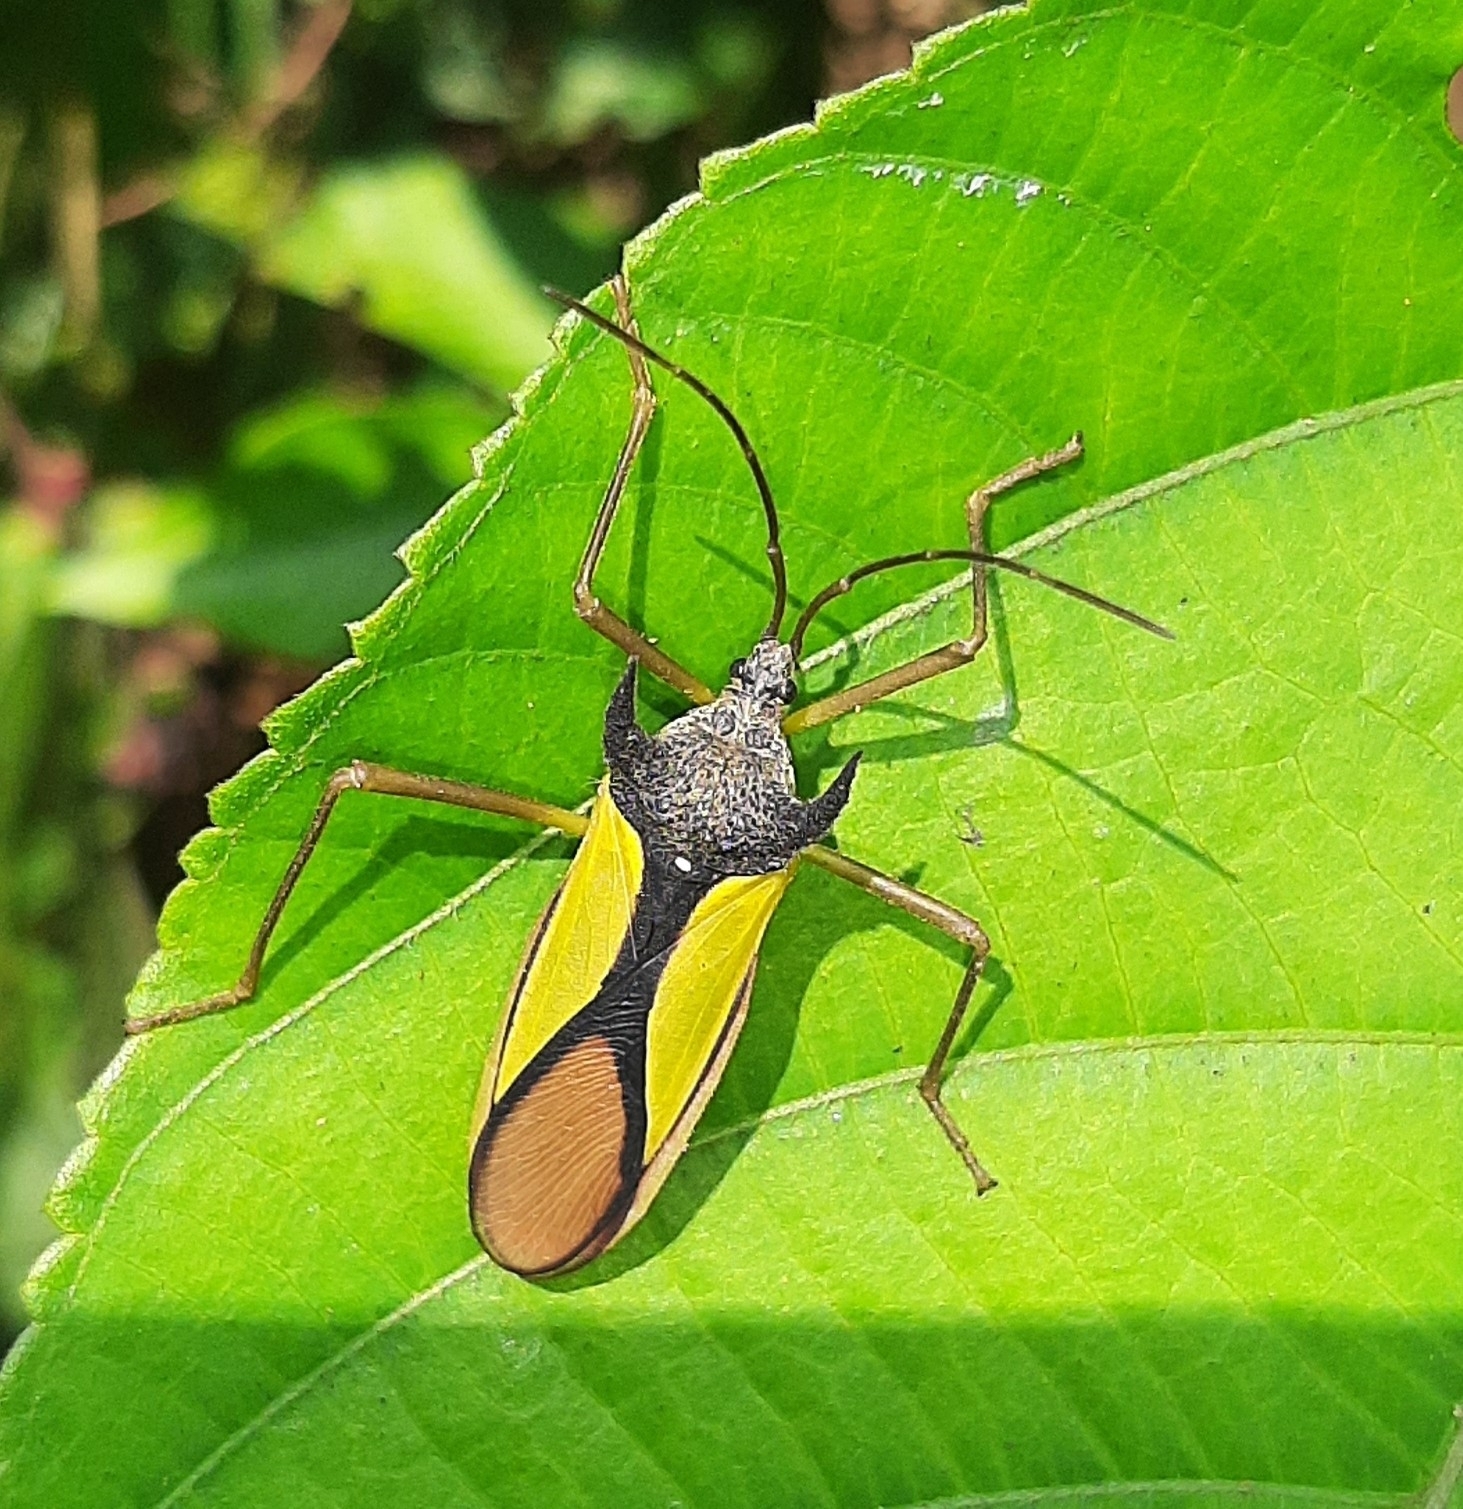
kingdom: Animalia
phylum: Arthropoda
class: Insecta
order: Hemiptera
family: Coreidae
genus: Euagona
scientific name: Euagona diana
